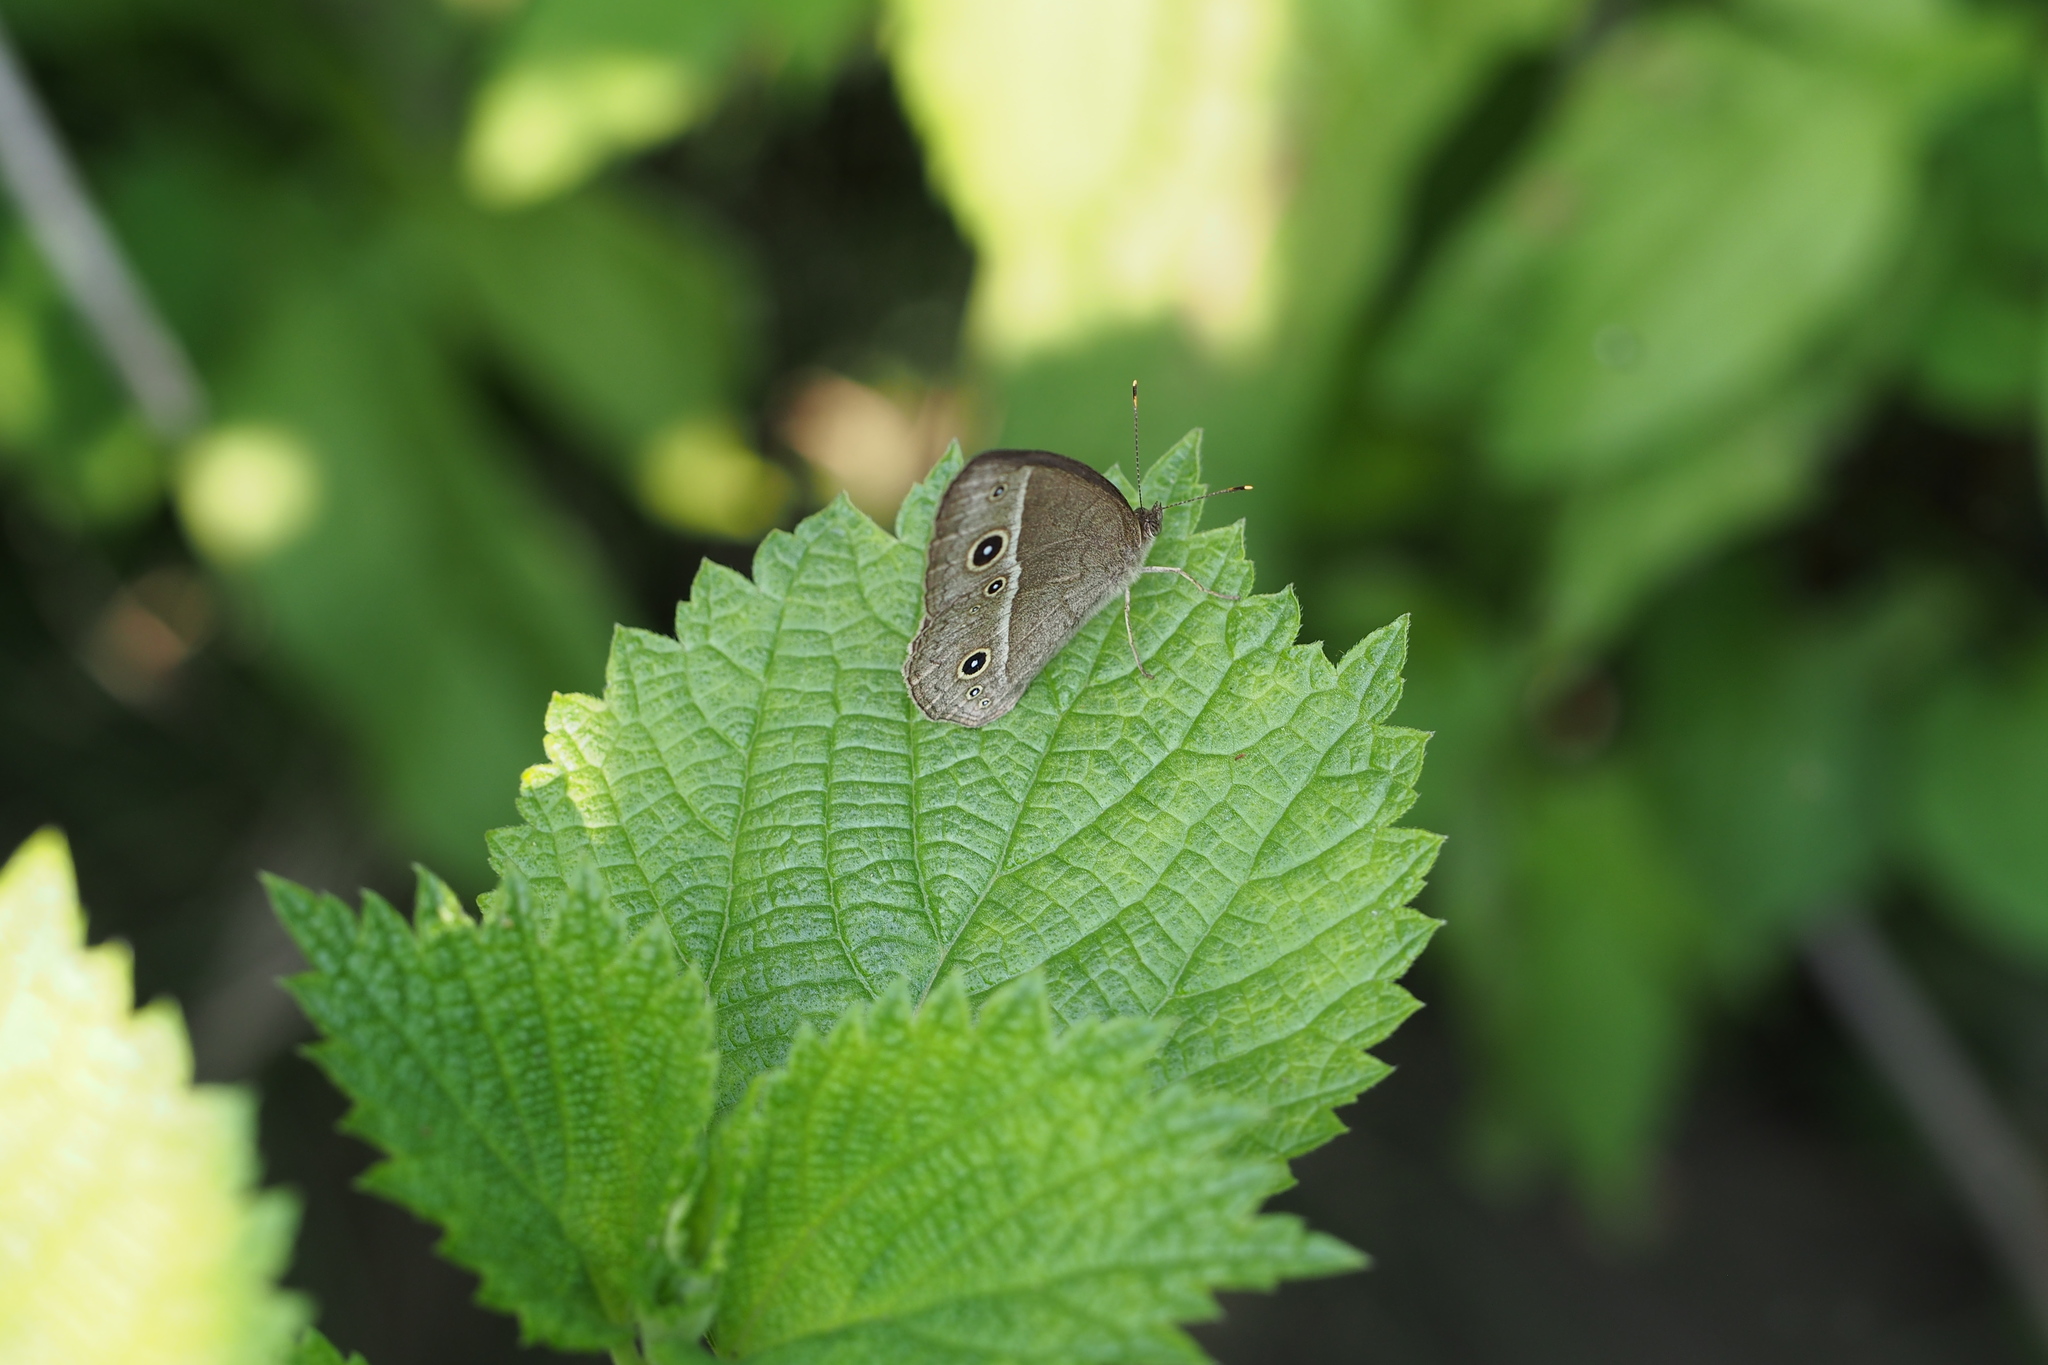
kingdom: Animalia
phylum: Arthropoda
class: Insecta
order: Lepidoptera
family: Nymphalidae
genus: Mycalesis
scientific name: Mycalesis gotama
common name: Chinese bushbrown
